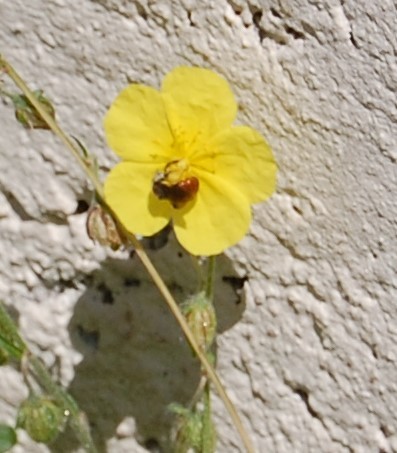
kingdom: Animalia
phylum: Arthropoda
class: Insecta
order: Hymenoptera
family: Andrenidae
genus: Andrena
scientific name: Andrena labiata
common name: Red-girdled mining bee
